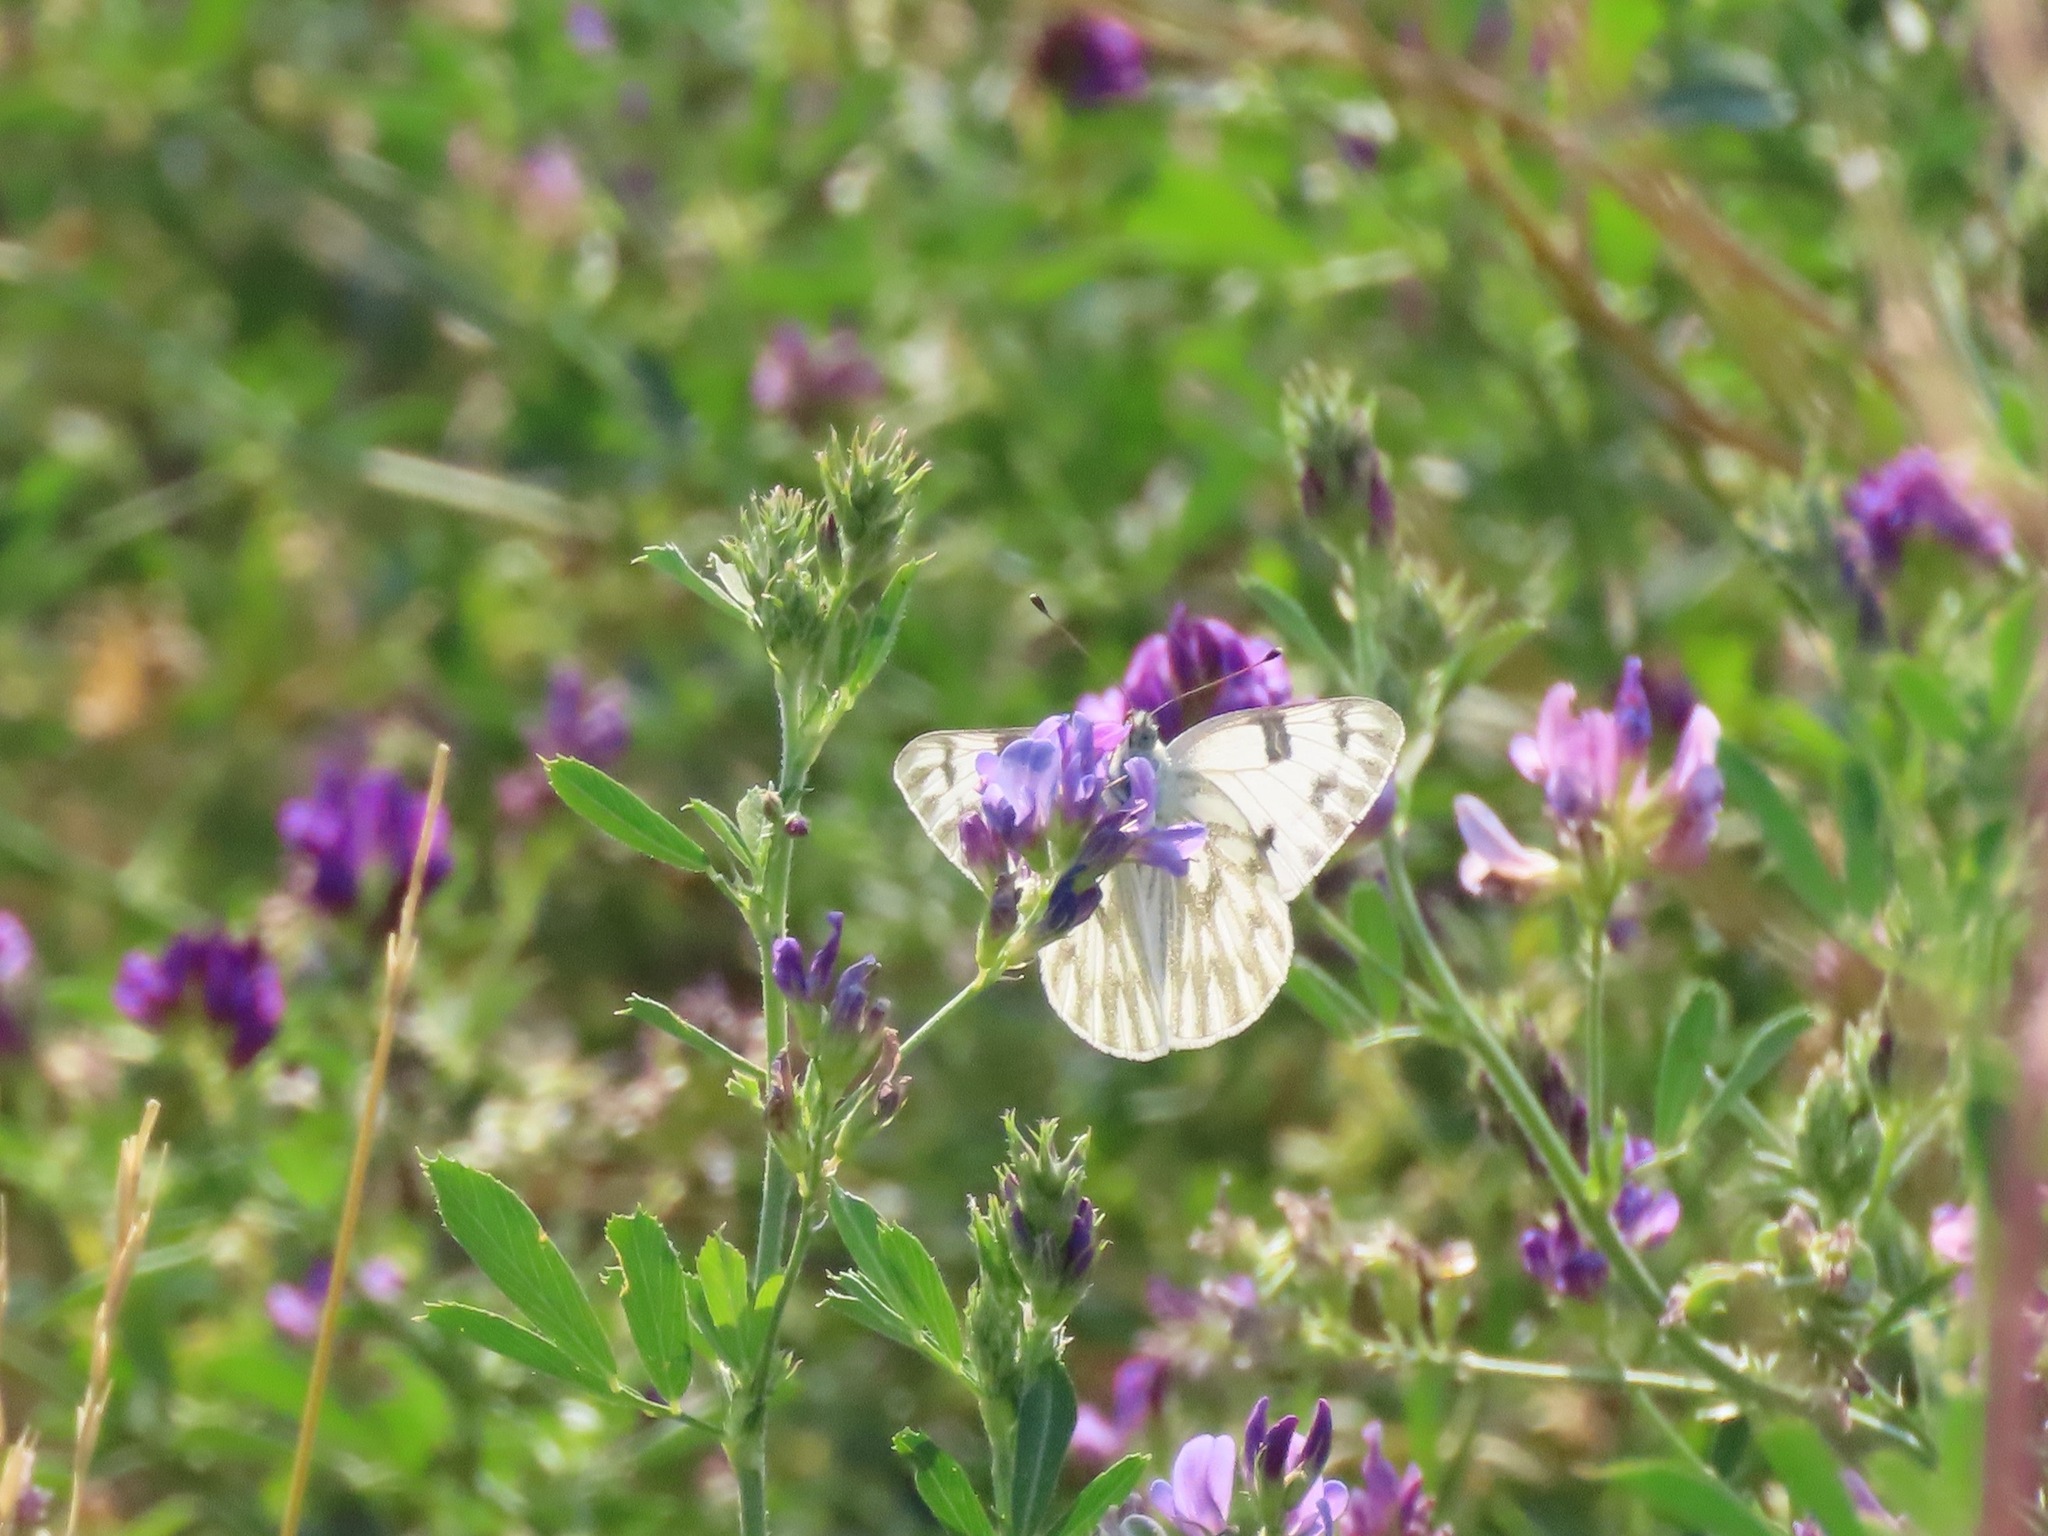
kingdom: Animalia
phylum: Arthropoda
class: Insecta
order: Lepidoptera
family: Pieridae
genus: Pontia
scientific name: Pontia occidentalis
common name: Western white
